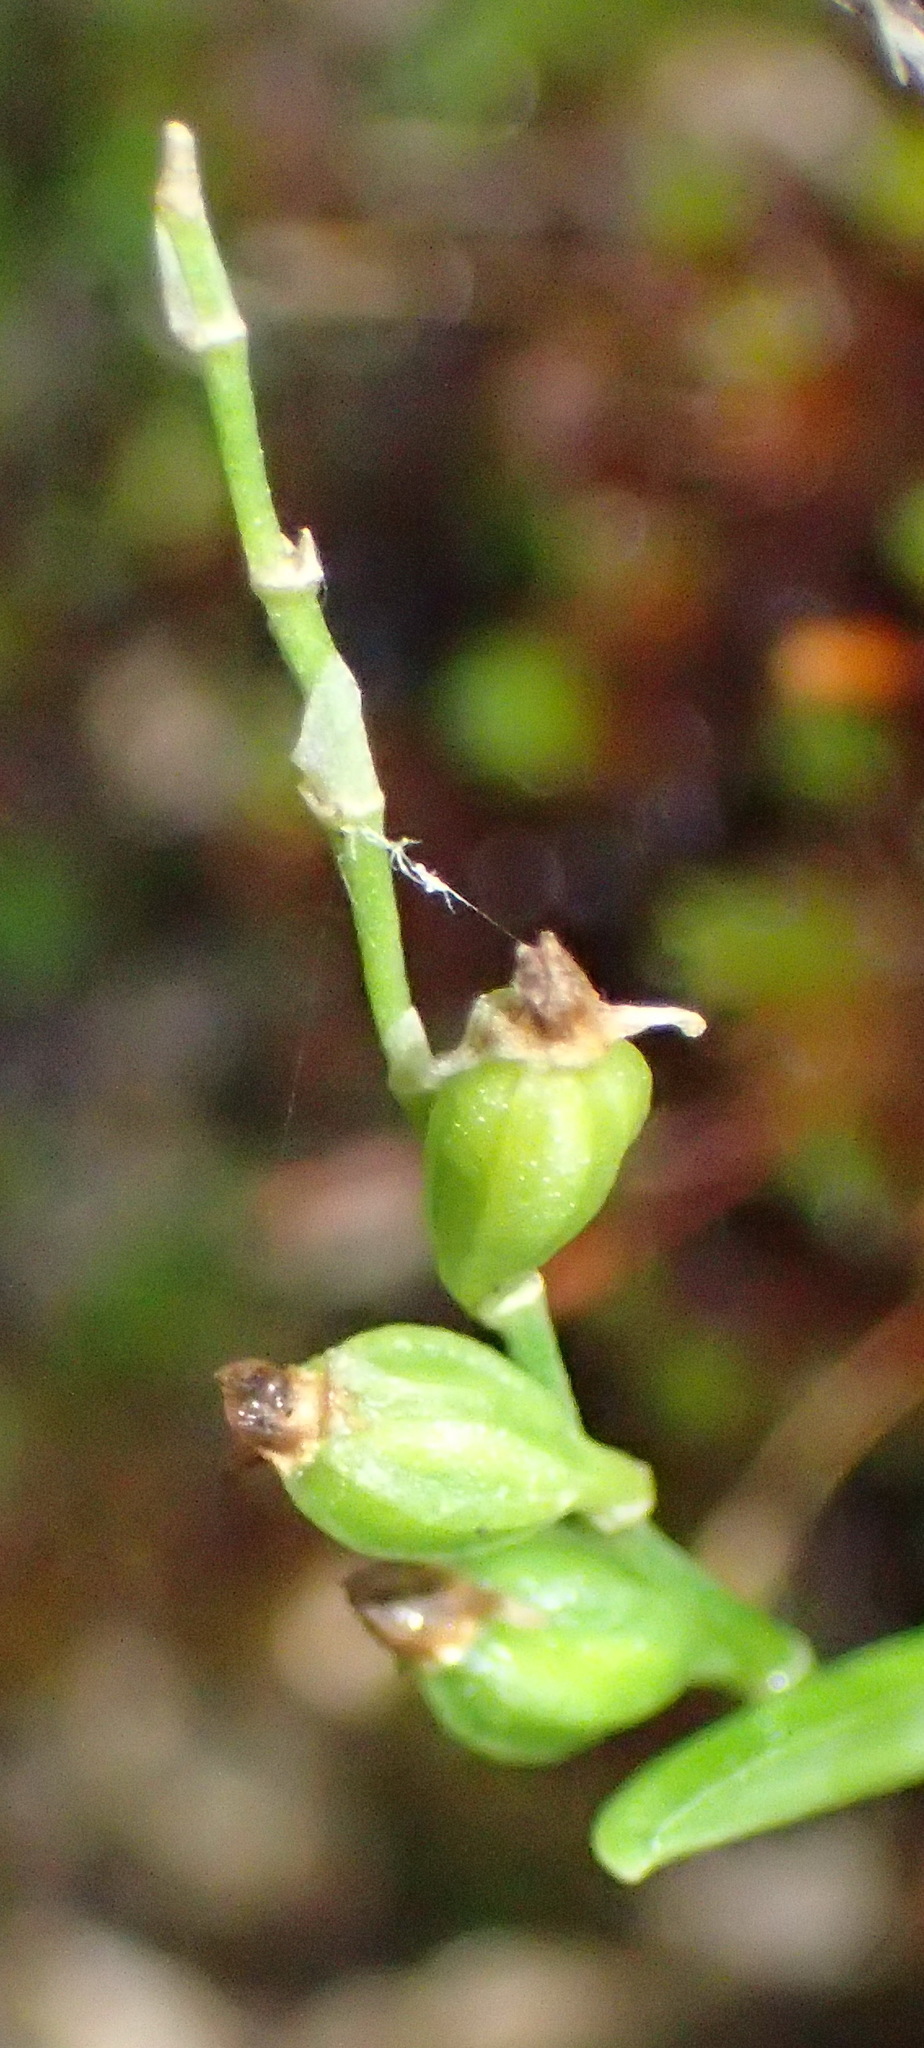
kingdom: Plantae
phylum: Tracheophyta
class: Liliopsida
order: Asparagales
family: Orchidaceae
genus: Angraecum
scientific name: Angraecum sacciferum
